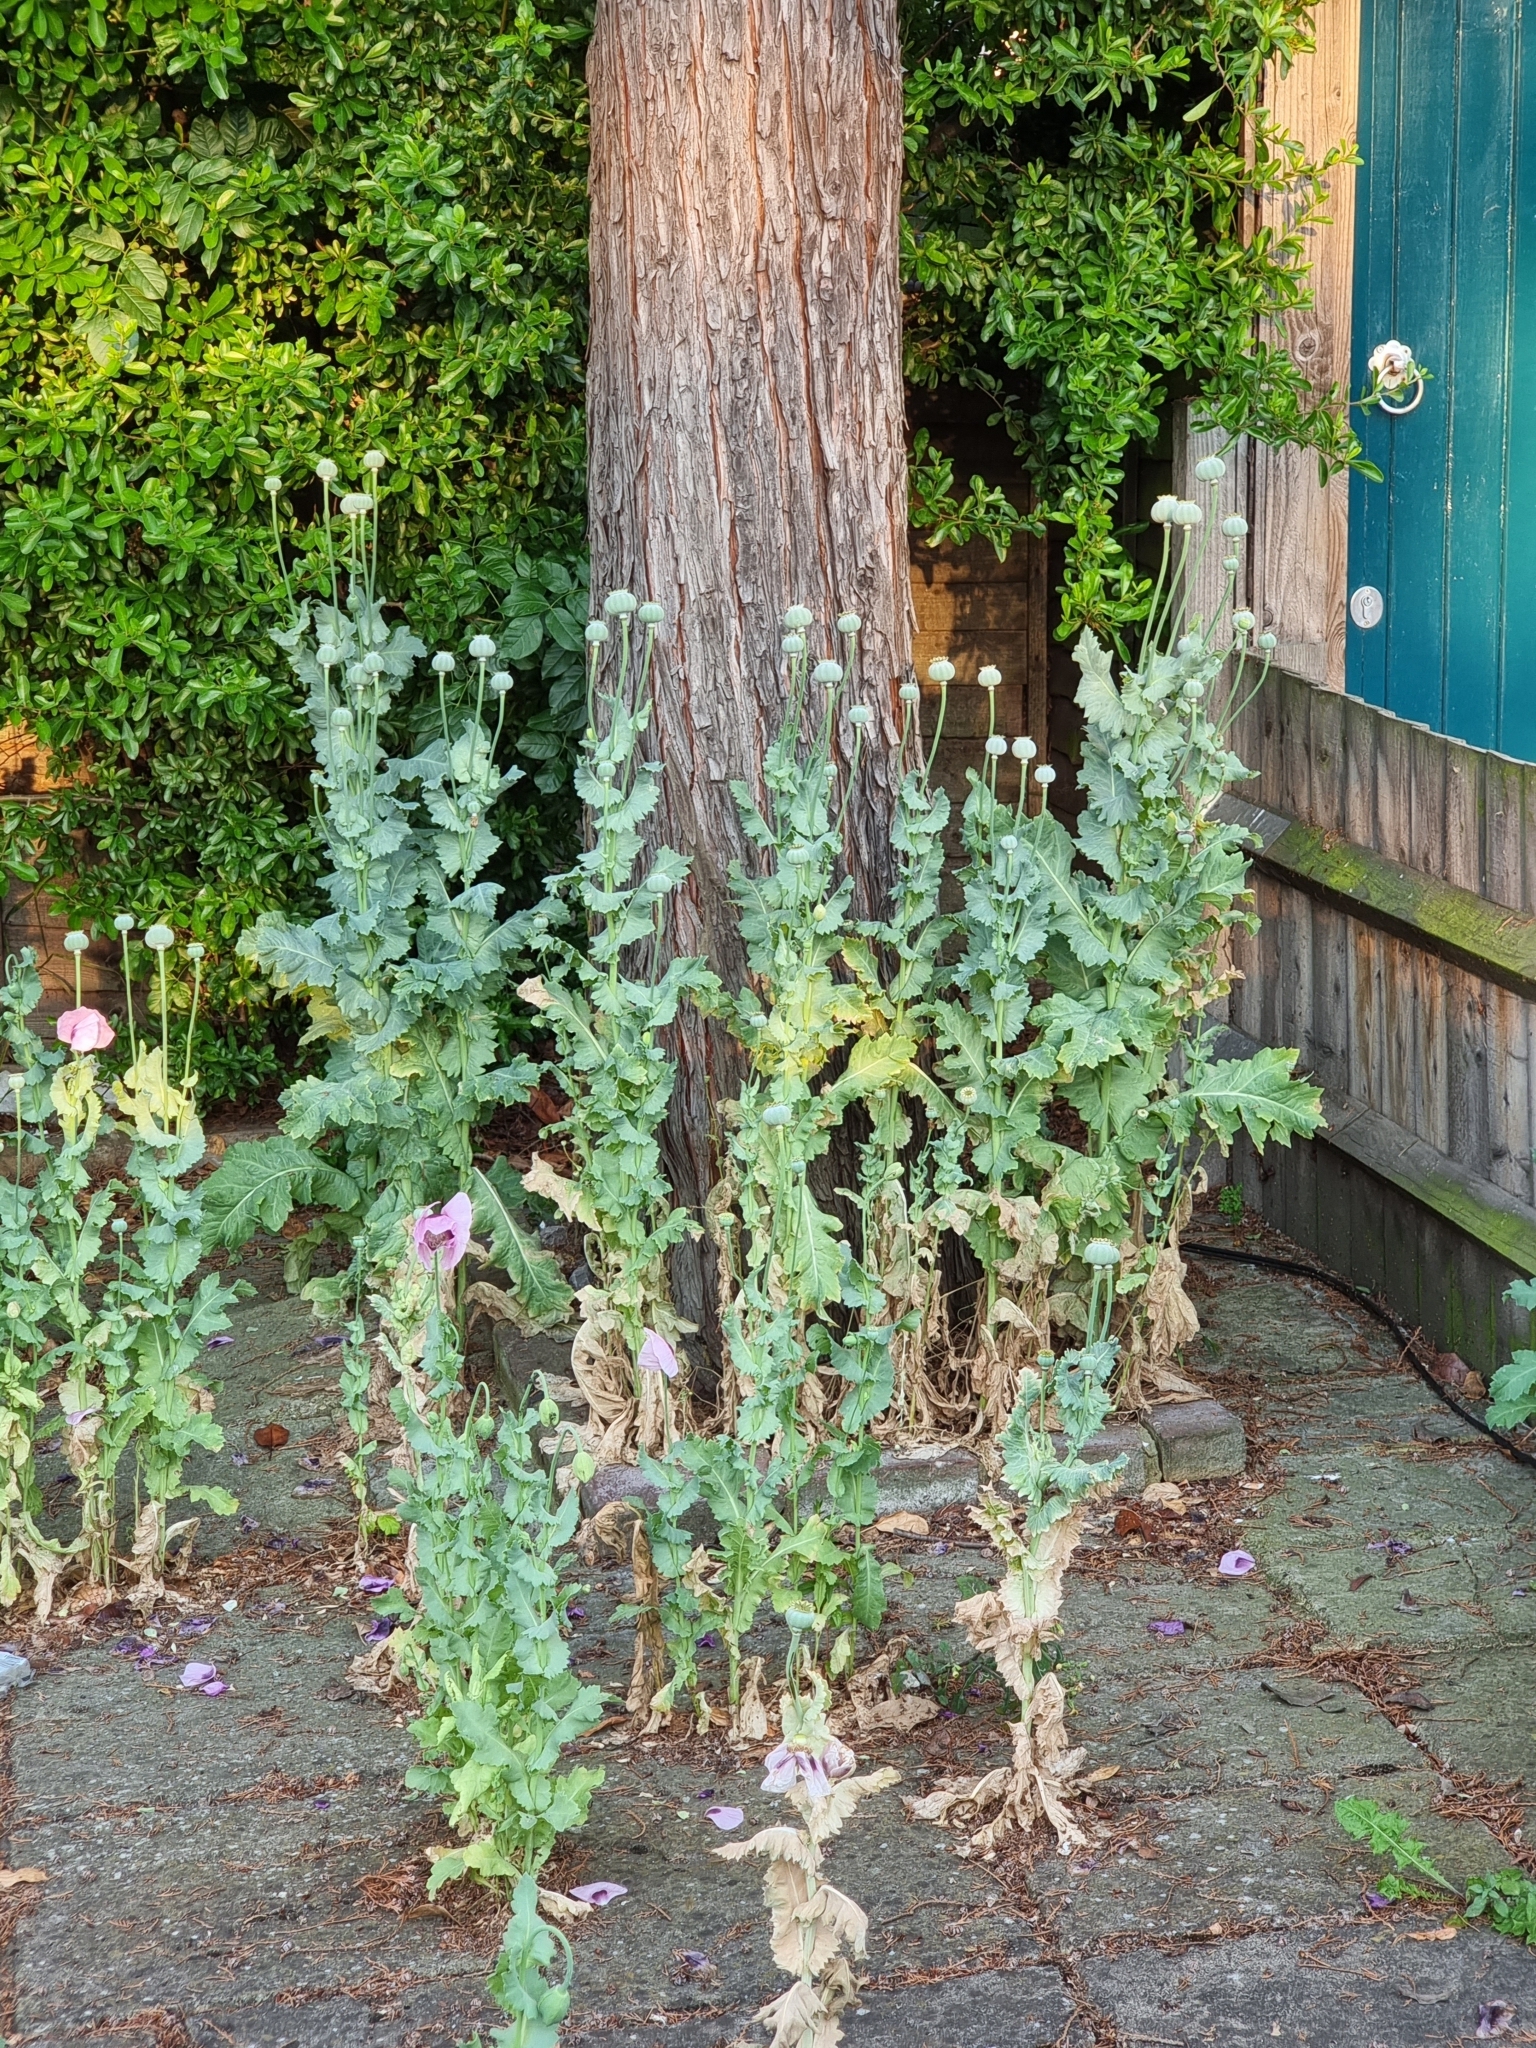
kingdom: Plantae
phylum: Tracheophyta
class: Magnoliopsida
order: Ranunculales
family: Papaveraceae
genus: Papaver
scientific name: Papaver somniferum
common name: Opium poppy
